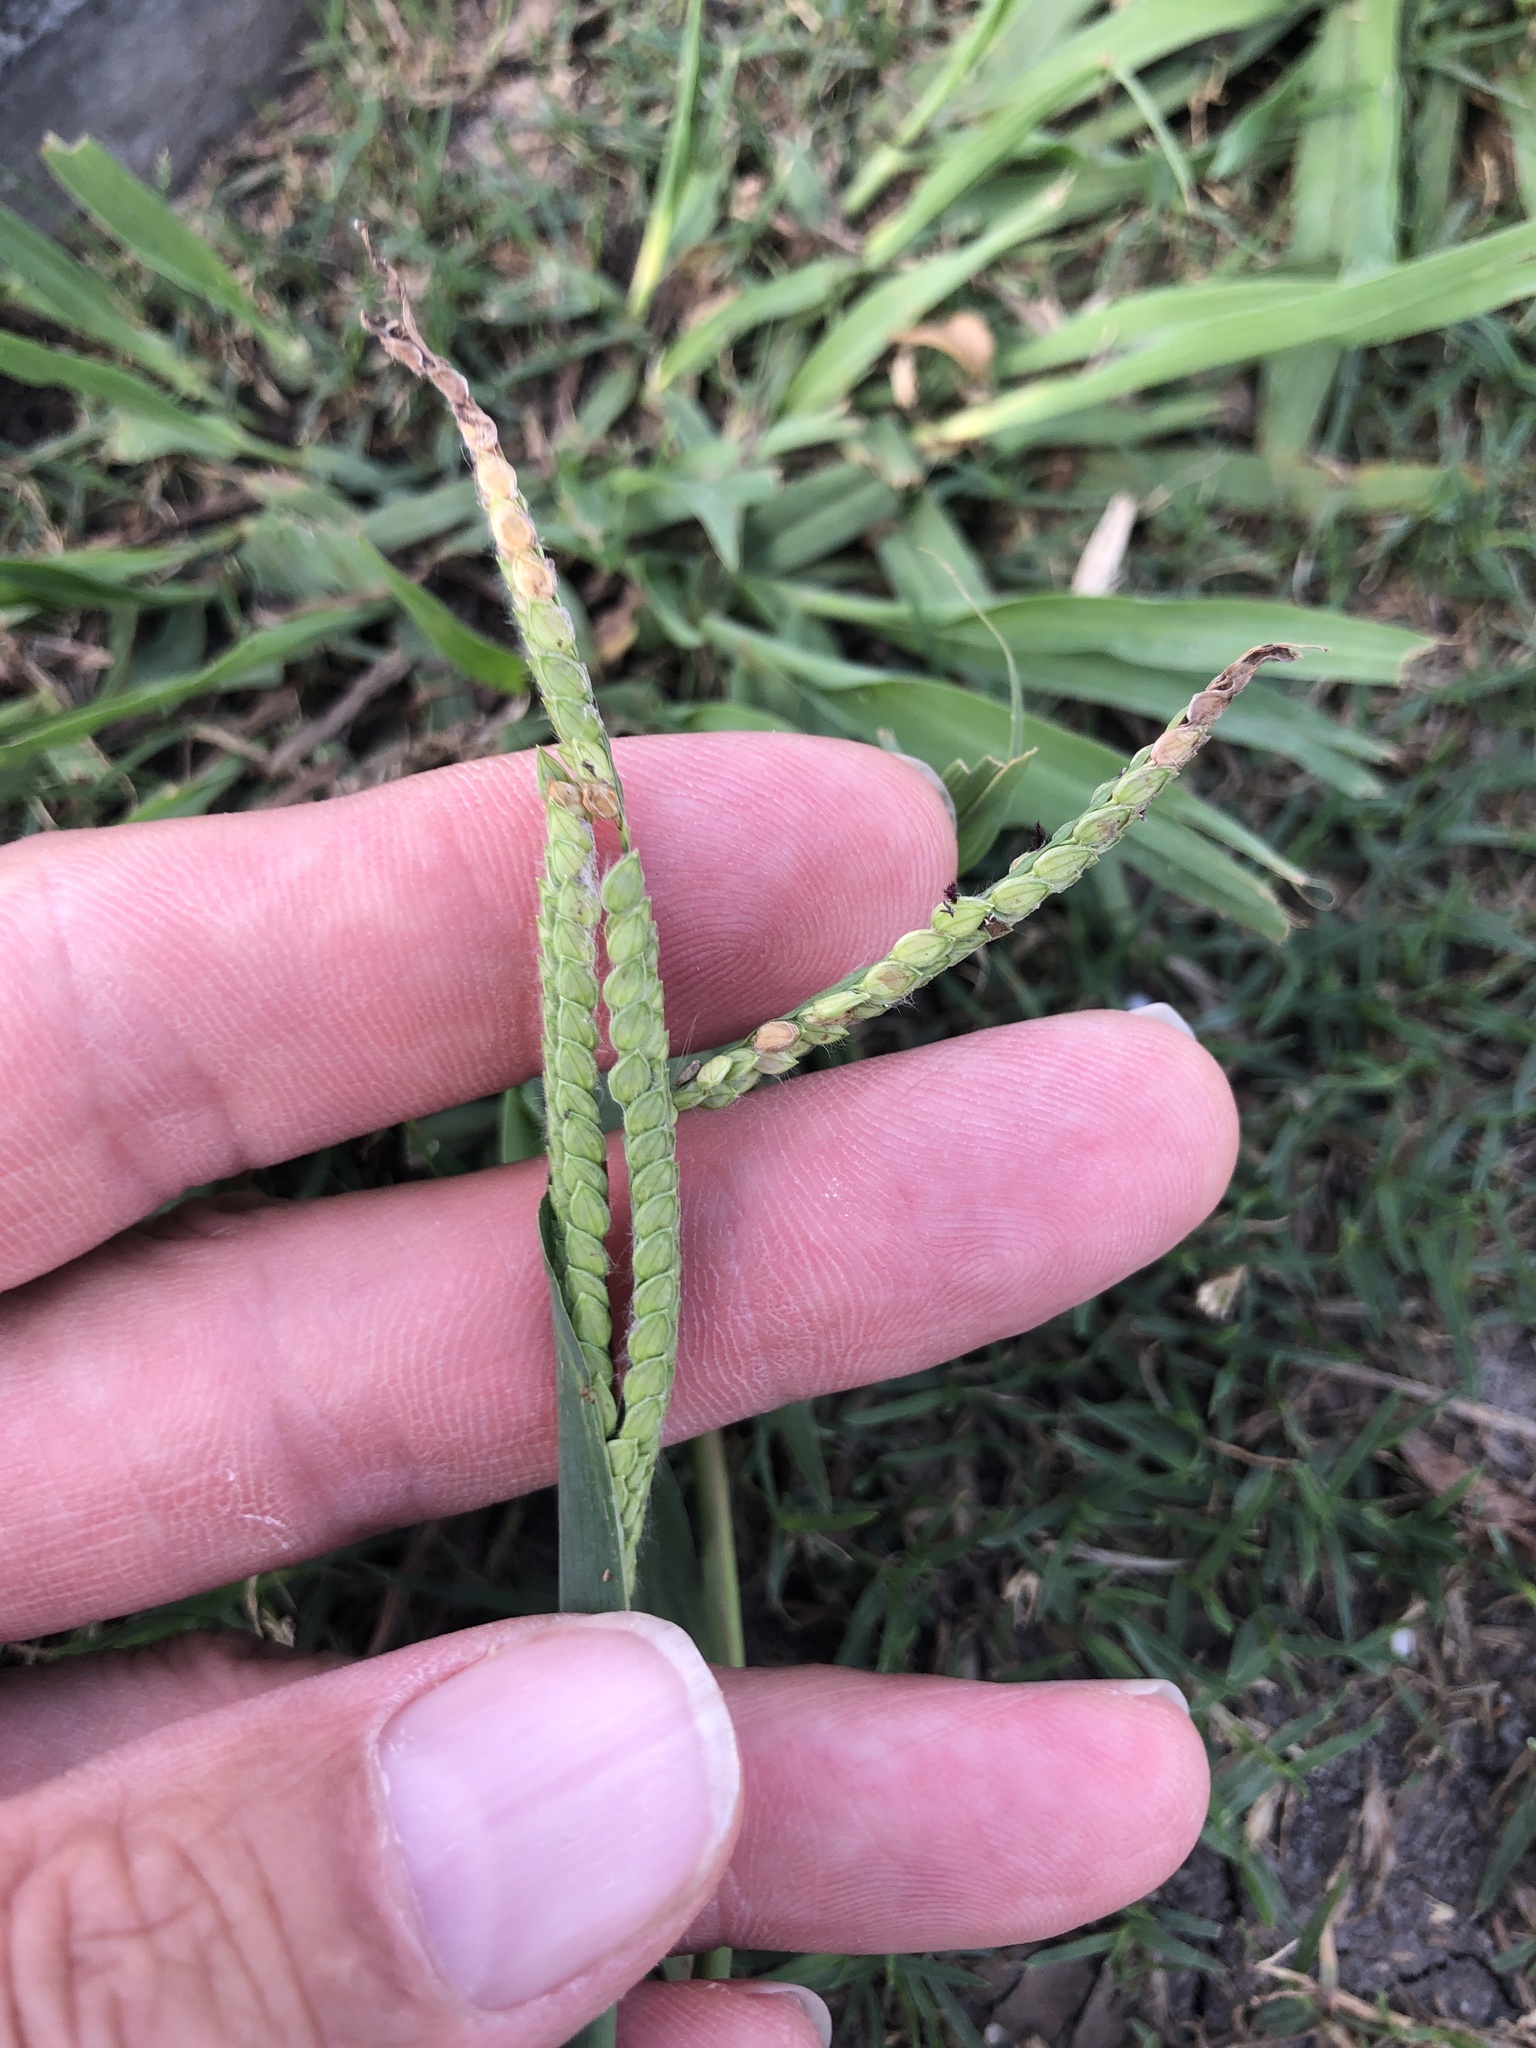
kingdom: Plantae
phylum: Tracheophyta
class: Liliopsida
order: Poales
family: Poaceae
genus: Paspalum
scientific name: Paspalum dilatatum
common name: Dallisgrass
